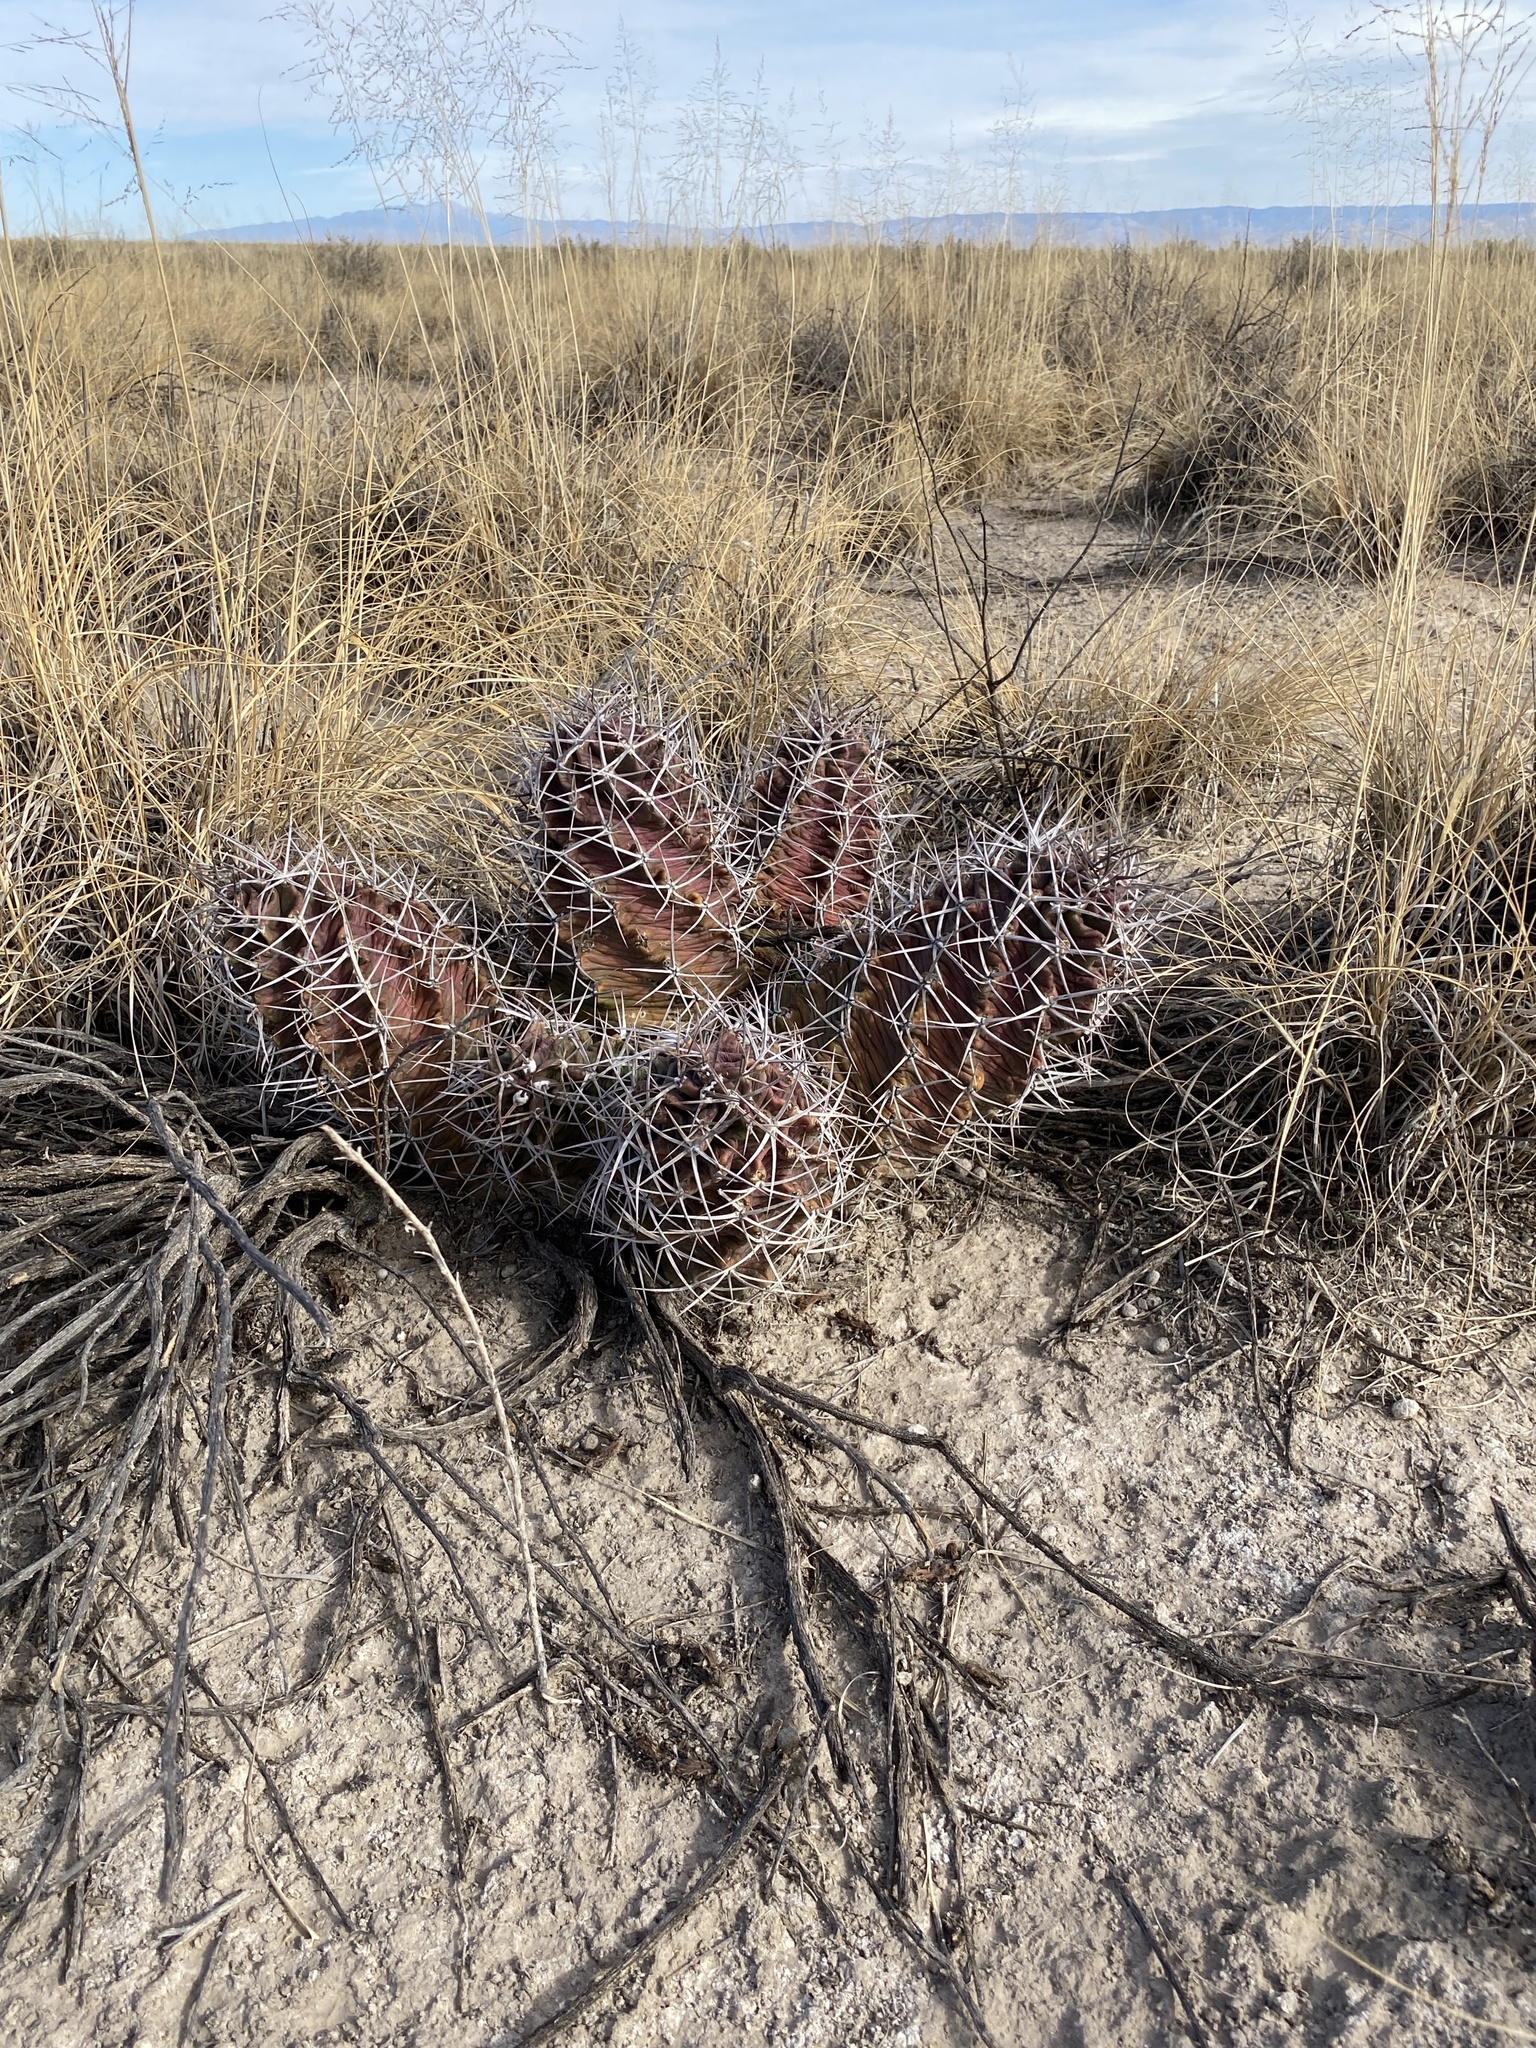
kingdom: Plantae
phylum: Tracheophyta
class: Magnoliopsida
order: Caryophyllales
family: Cactaceae
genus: Echinocereus
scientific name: Echinocereus triglochidiatus
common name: Claretcup hedgehog
